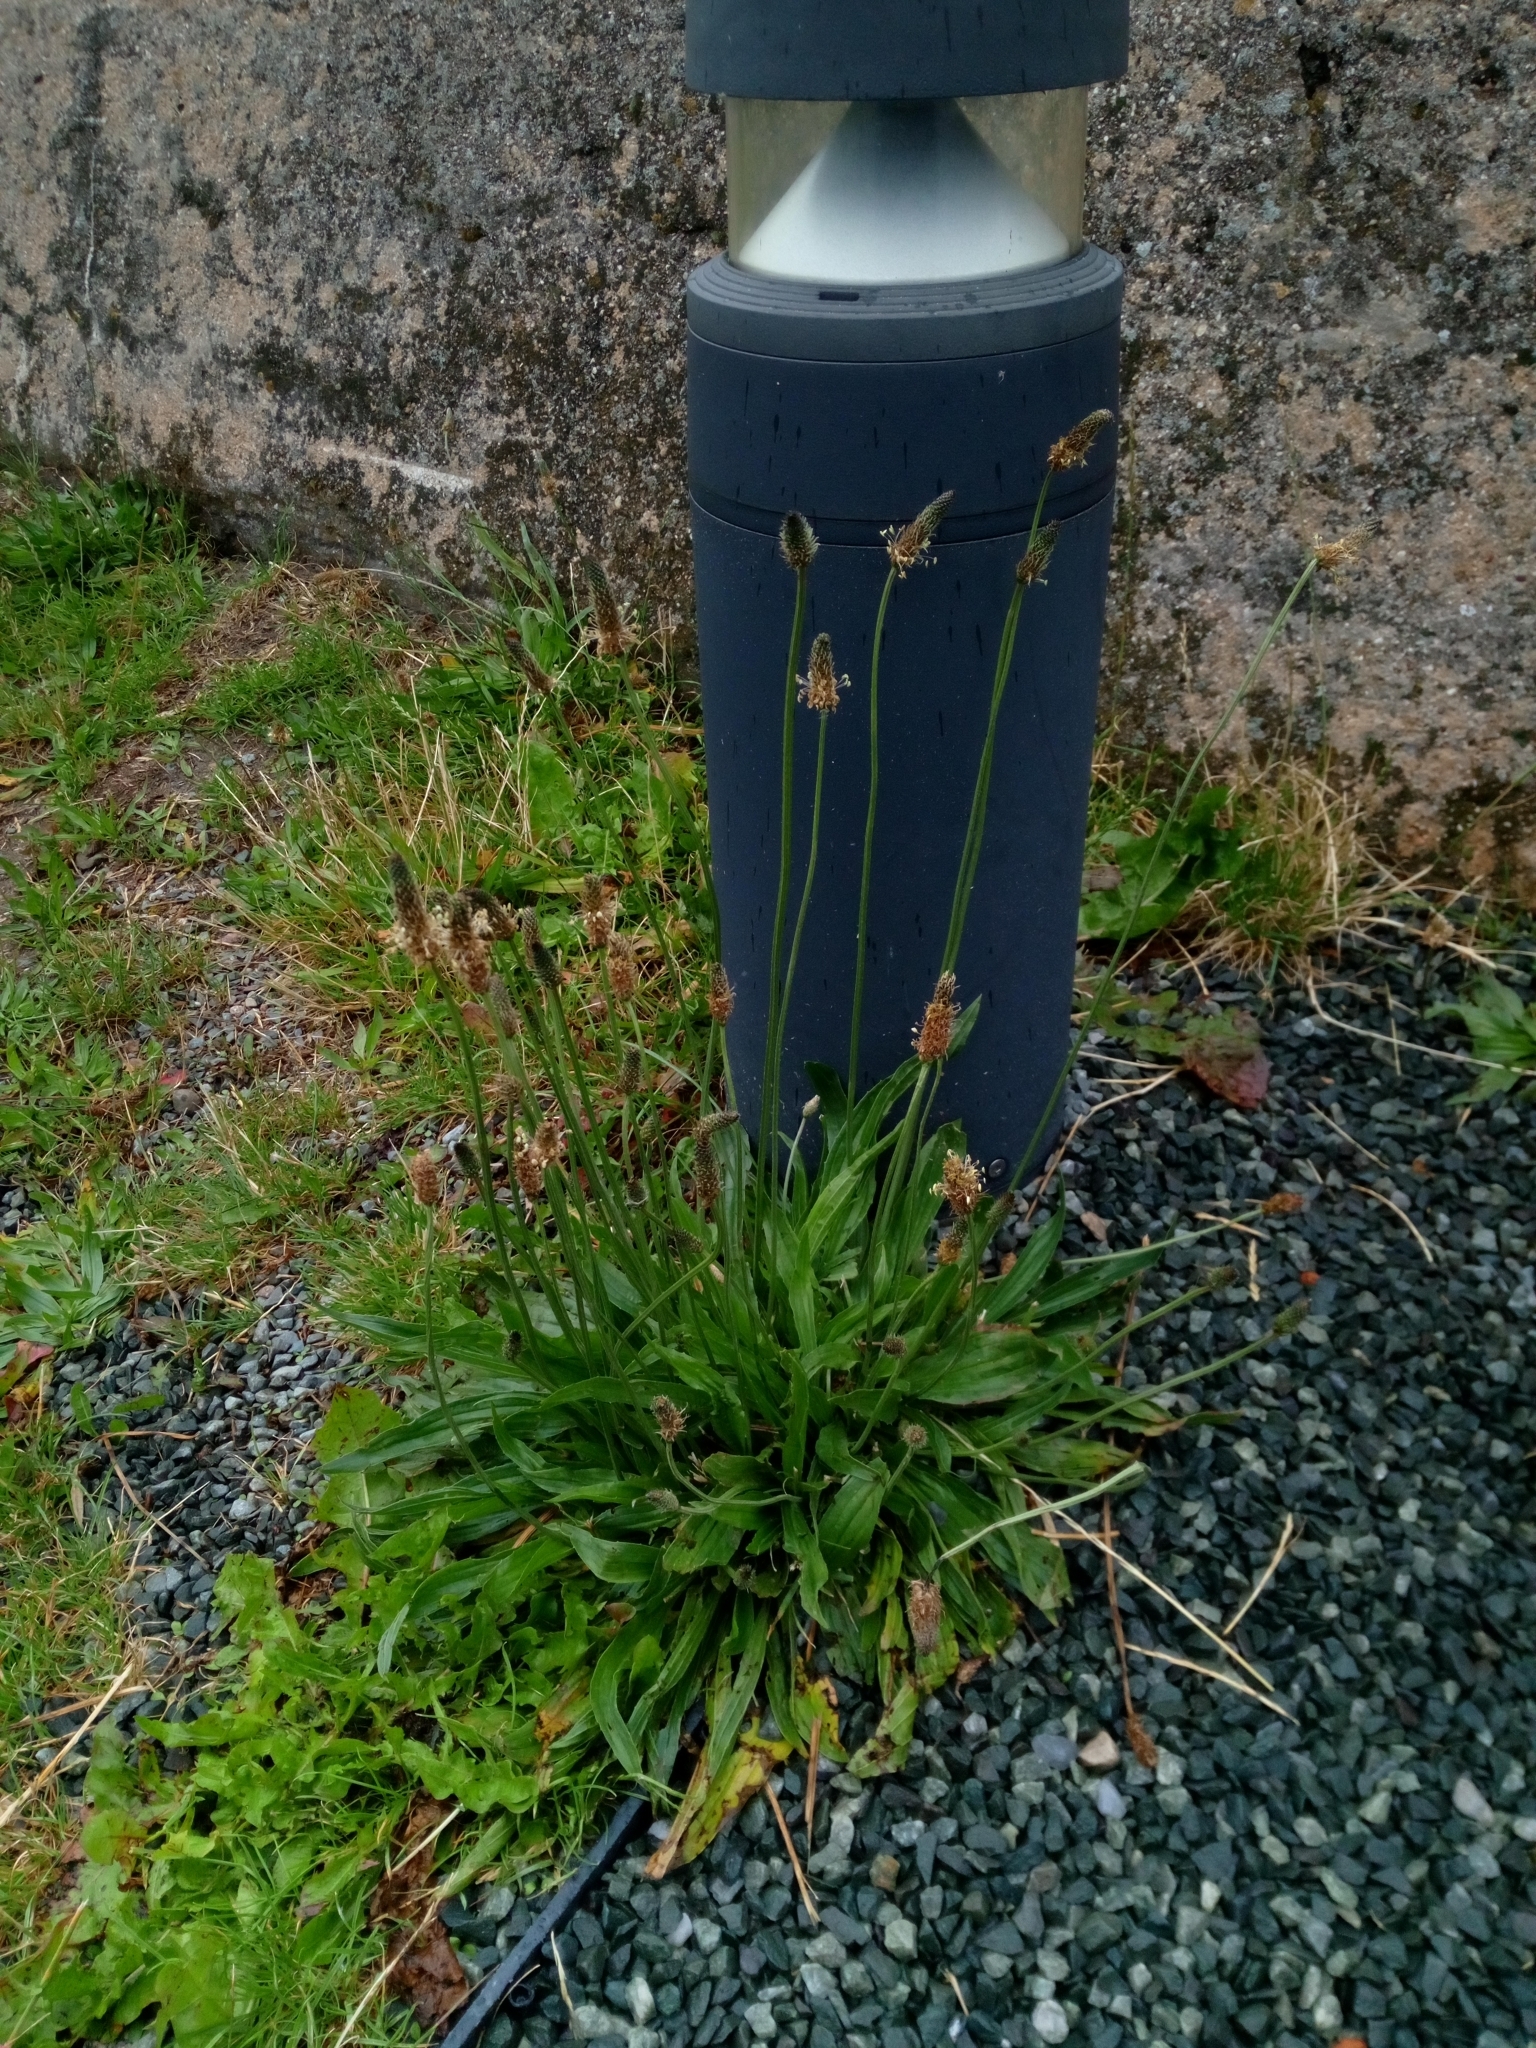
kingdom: Plantae
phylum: Tracheophyta
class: Magnoliopsida
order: Lamiales
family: Plantaginaceae
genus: Plantago
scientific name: Plantago lanceolata
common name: Ribwort plantain
